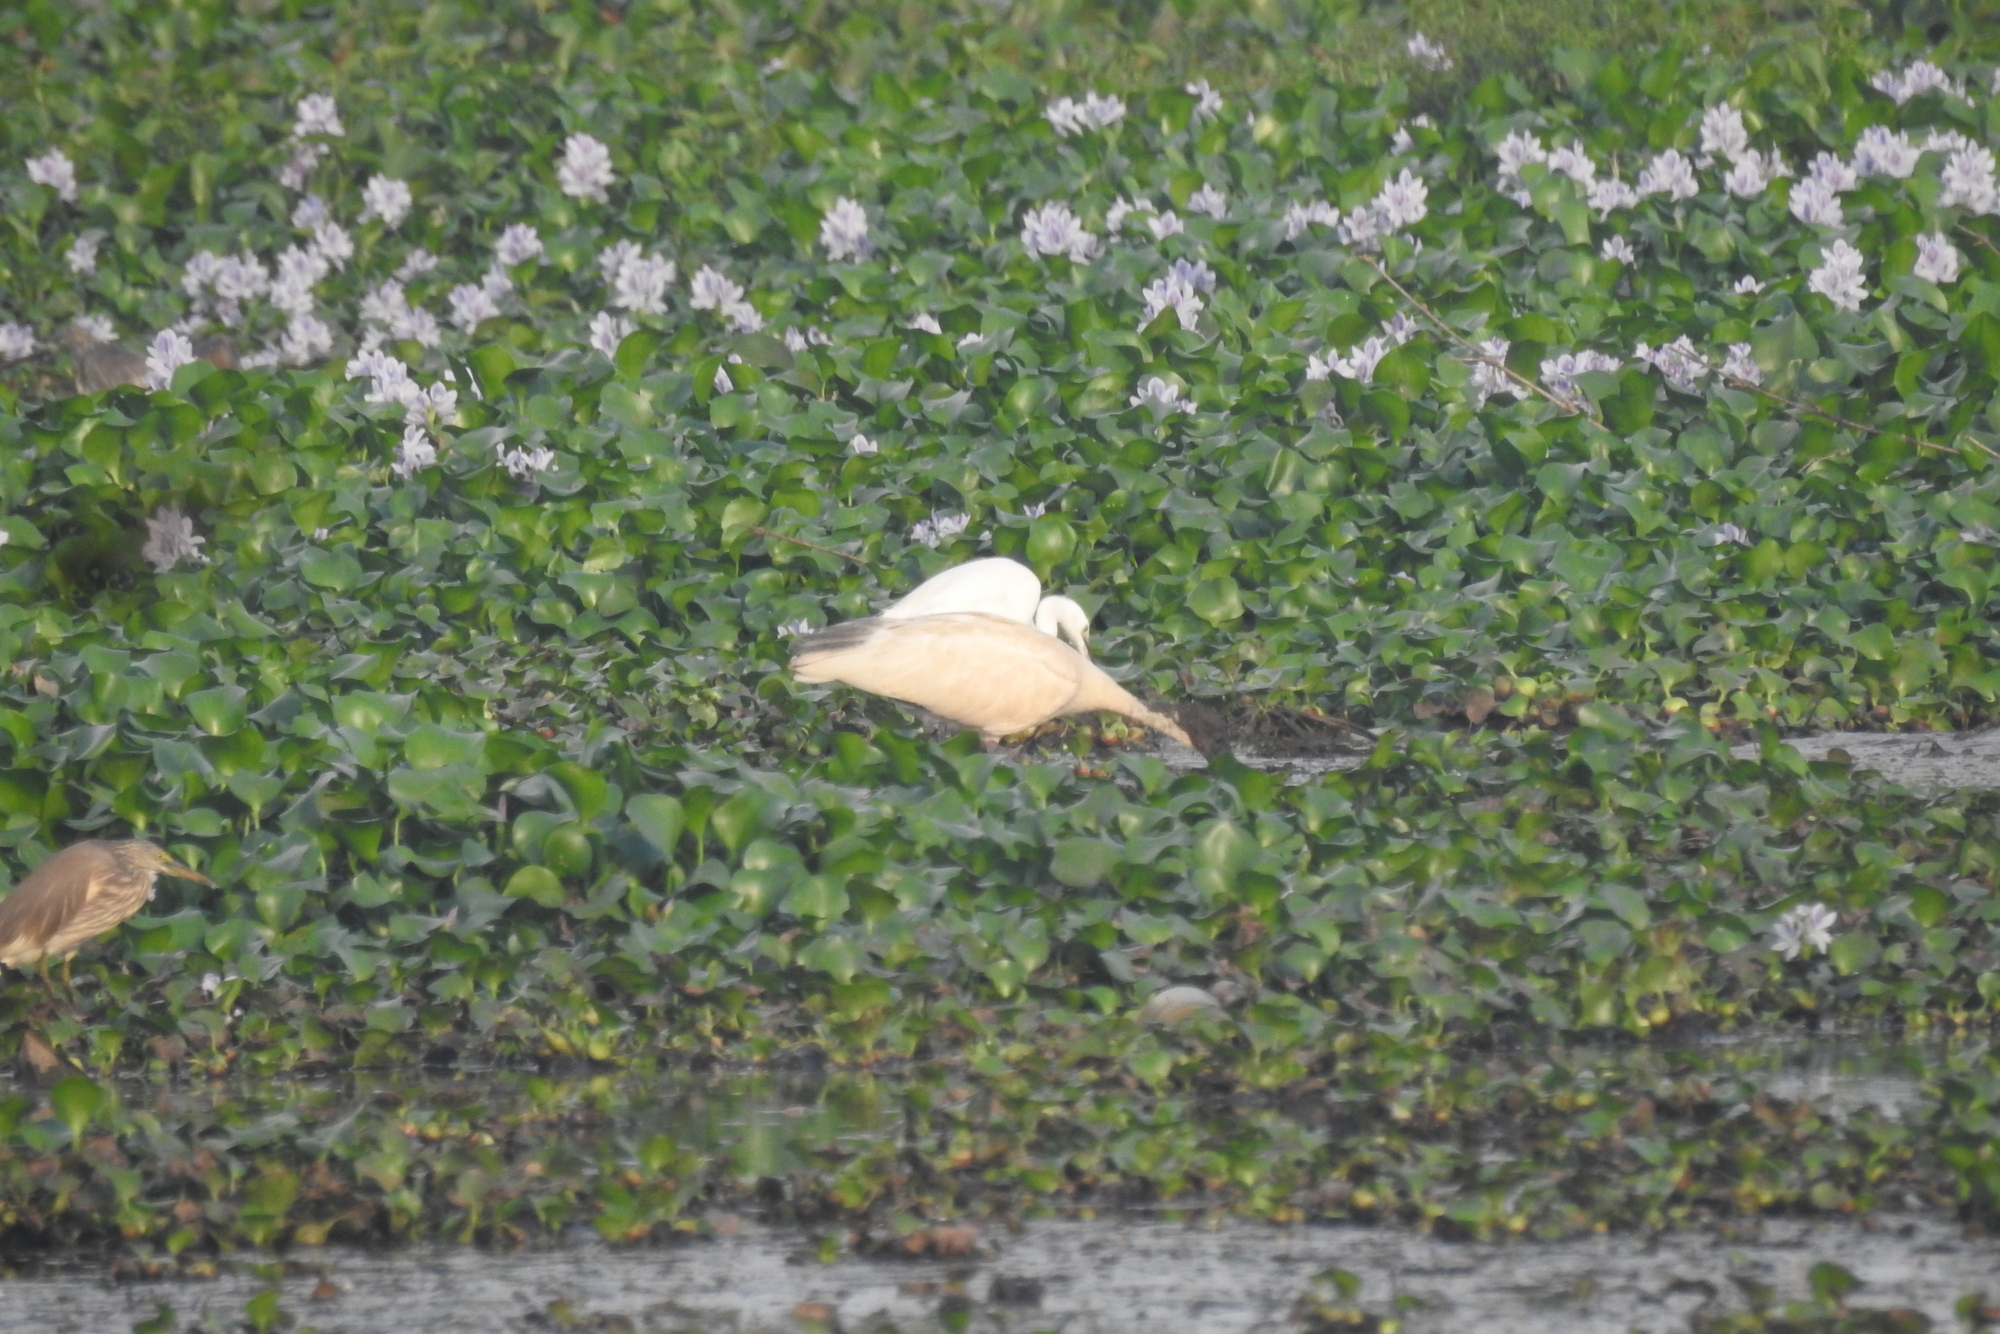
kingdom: Animalia
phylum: Chordata
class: Aves
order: Pelecaniformes
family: Threskiornithidae
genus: Threskiornis
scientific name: Threskiornis melanocephalus
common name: Black-headed ibis
